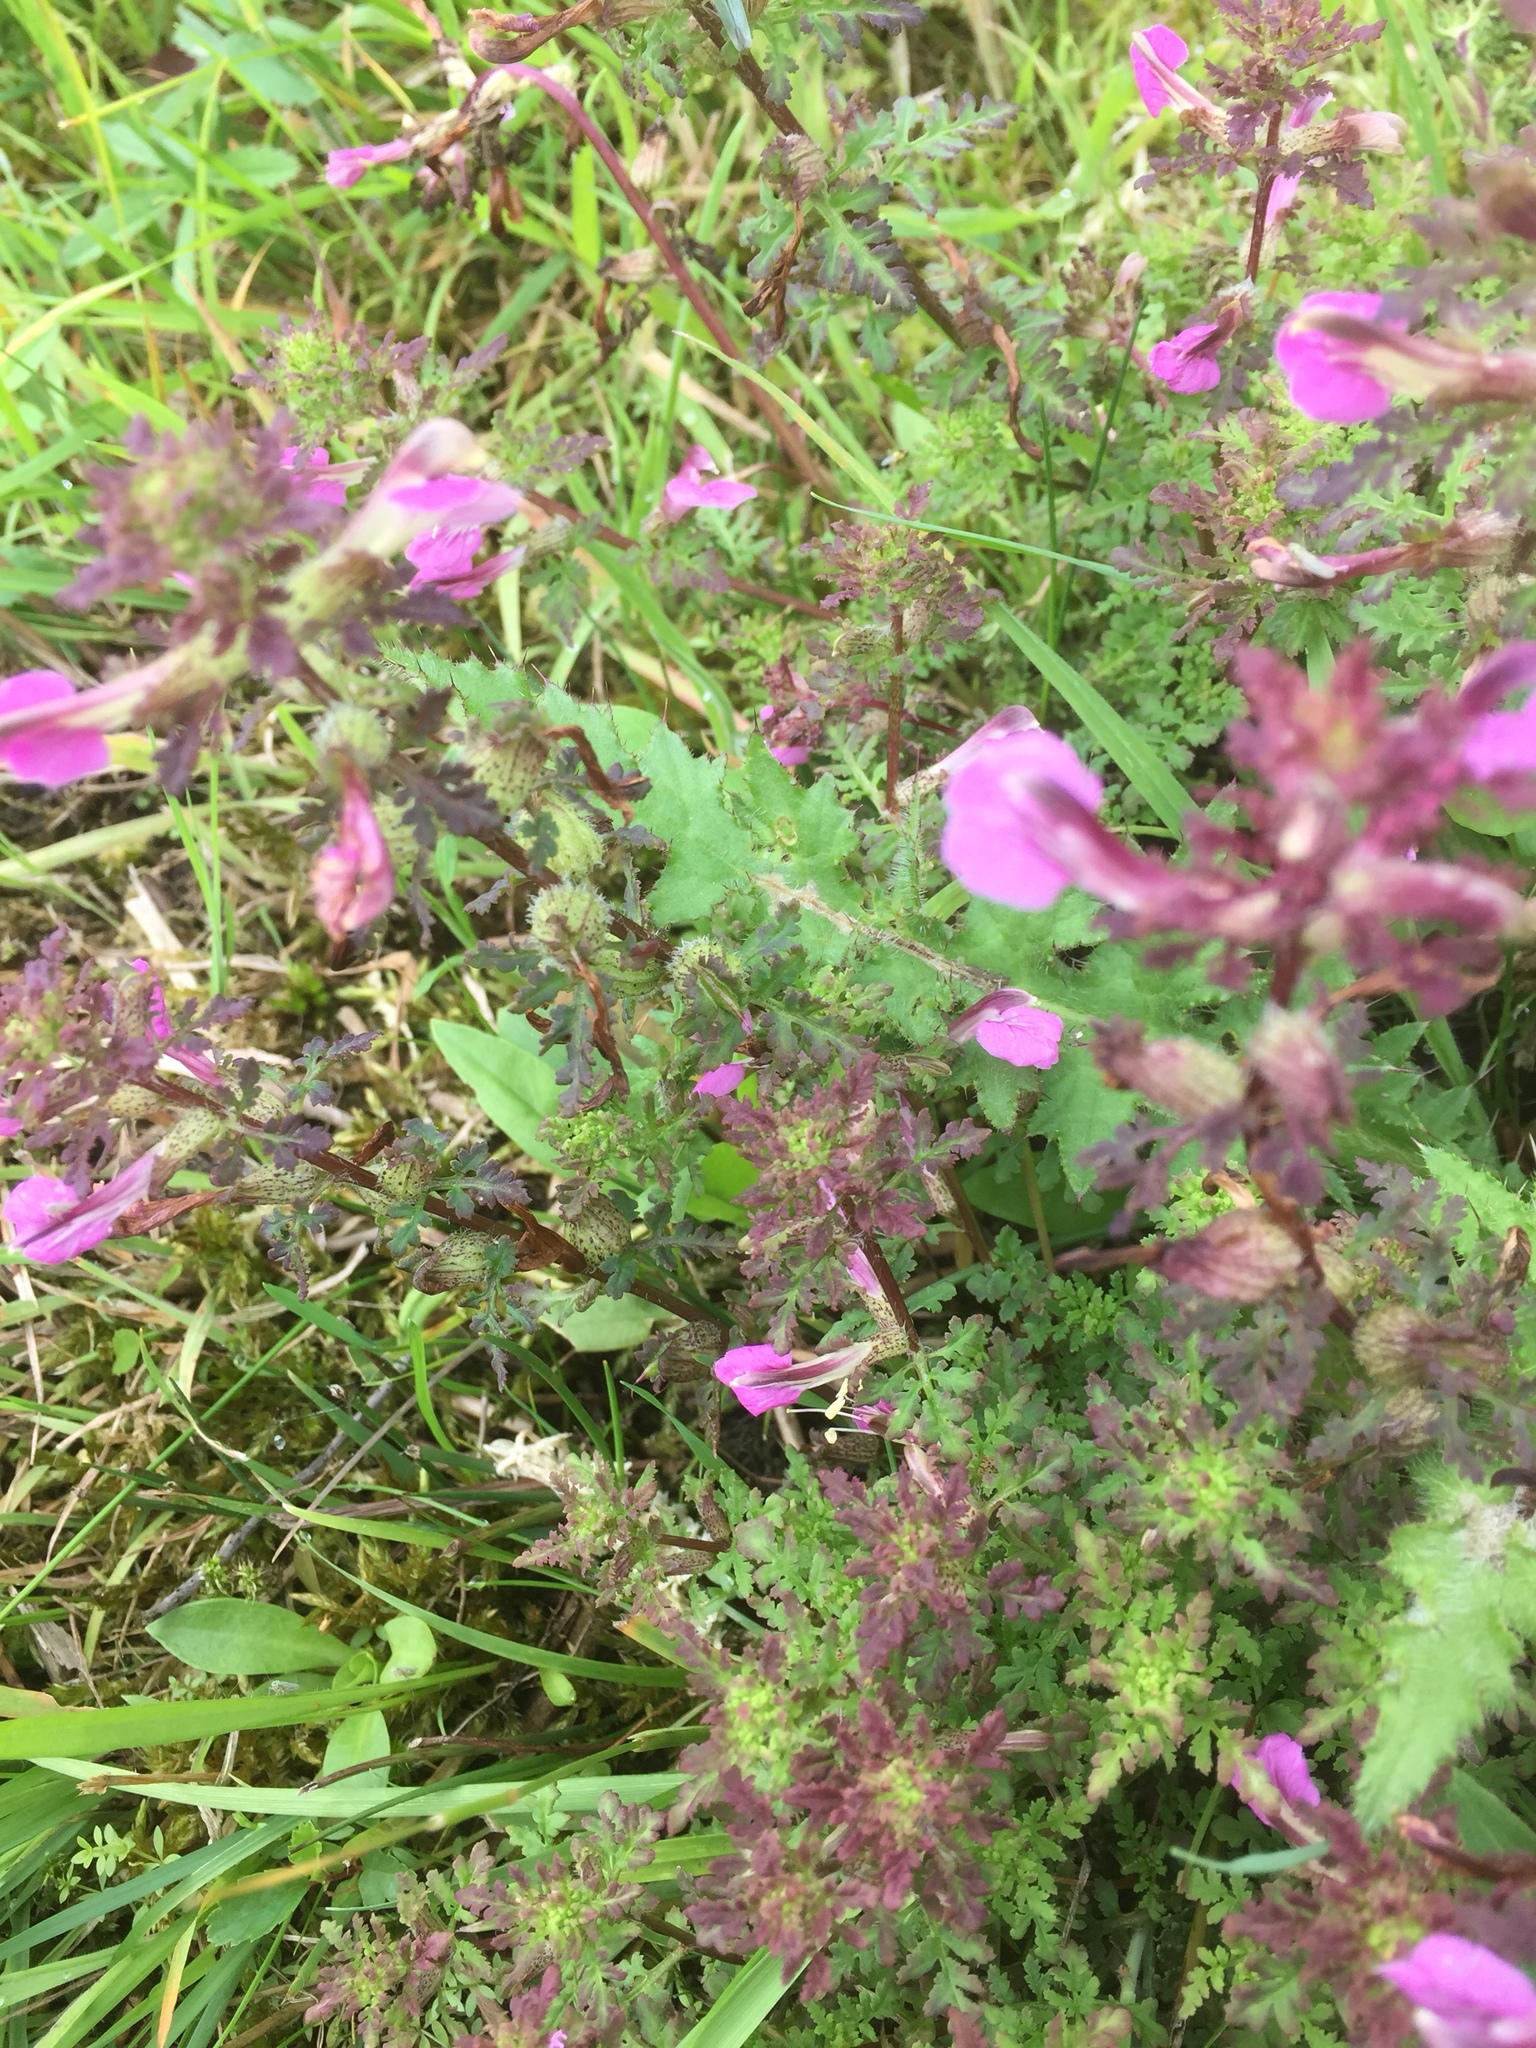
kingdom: Plantae
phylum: Tracheophyta
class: Magnoliopsida
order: Lamiales
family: Orobanchaceae
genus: Pedicularis
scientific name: Pedicularis palustris
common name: Marsh lousewort
